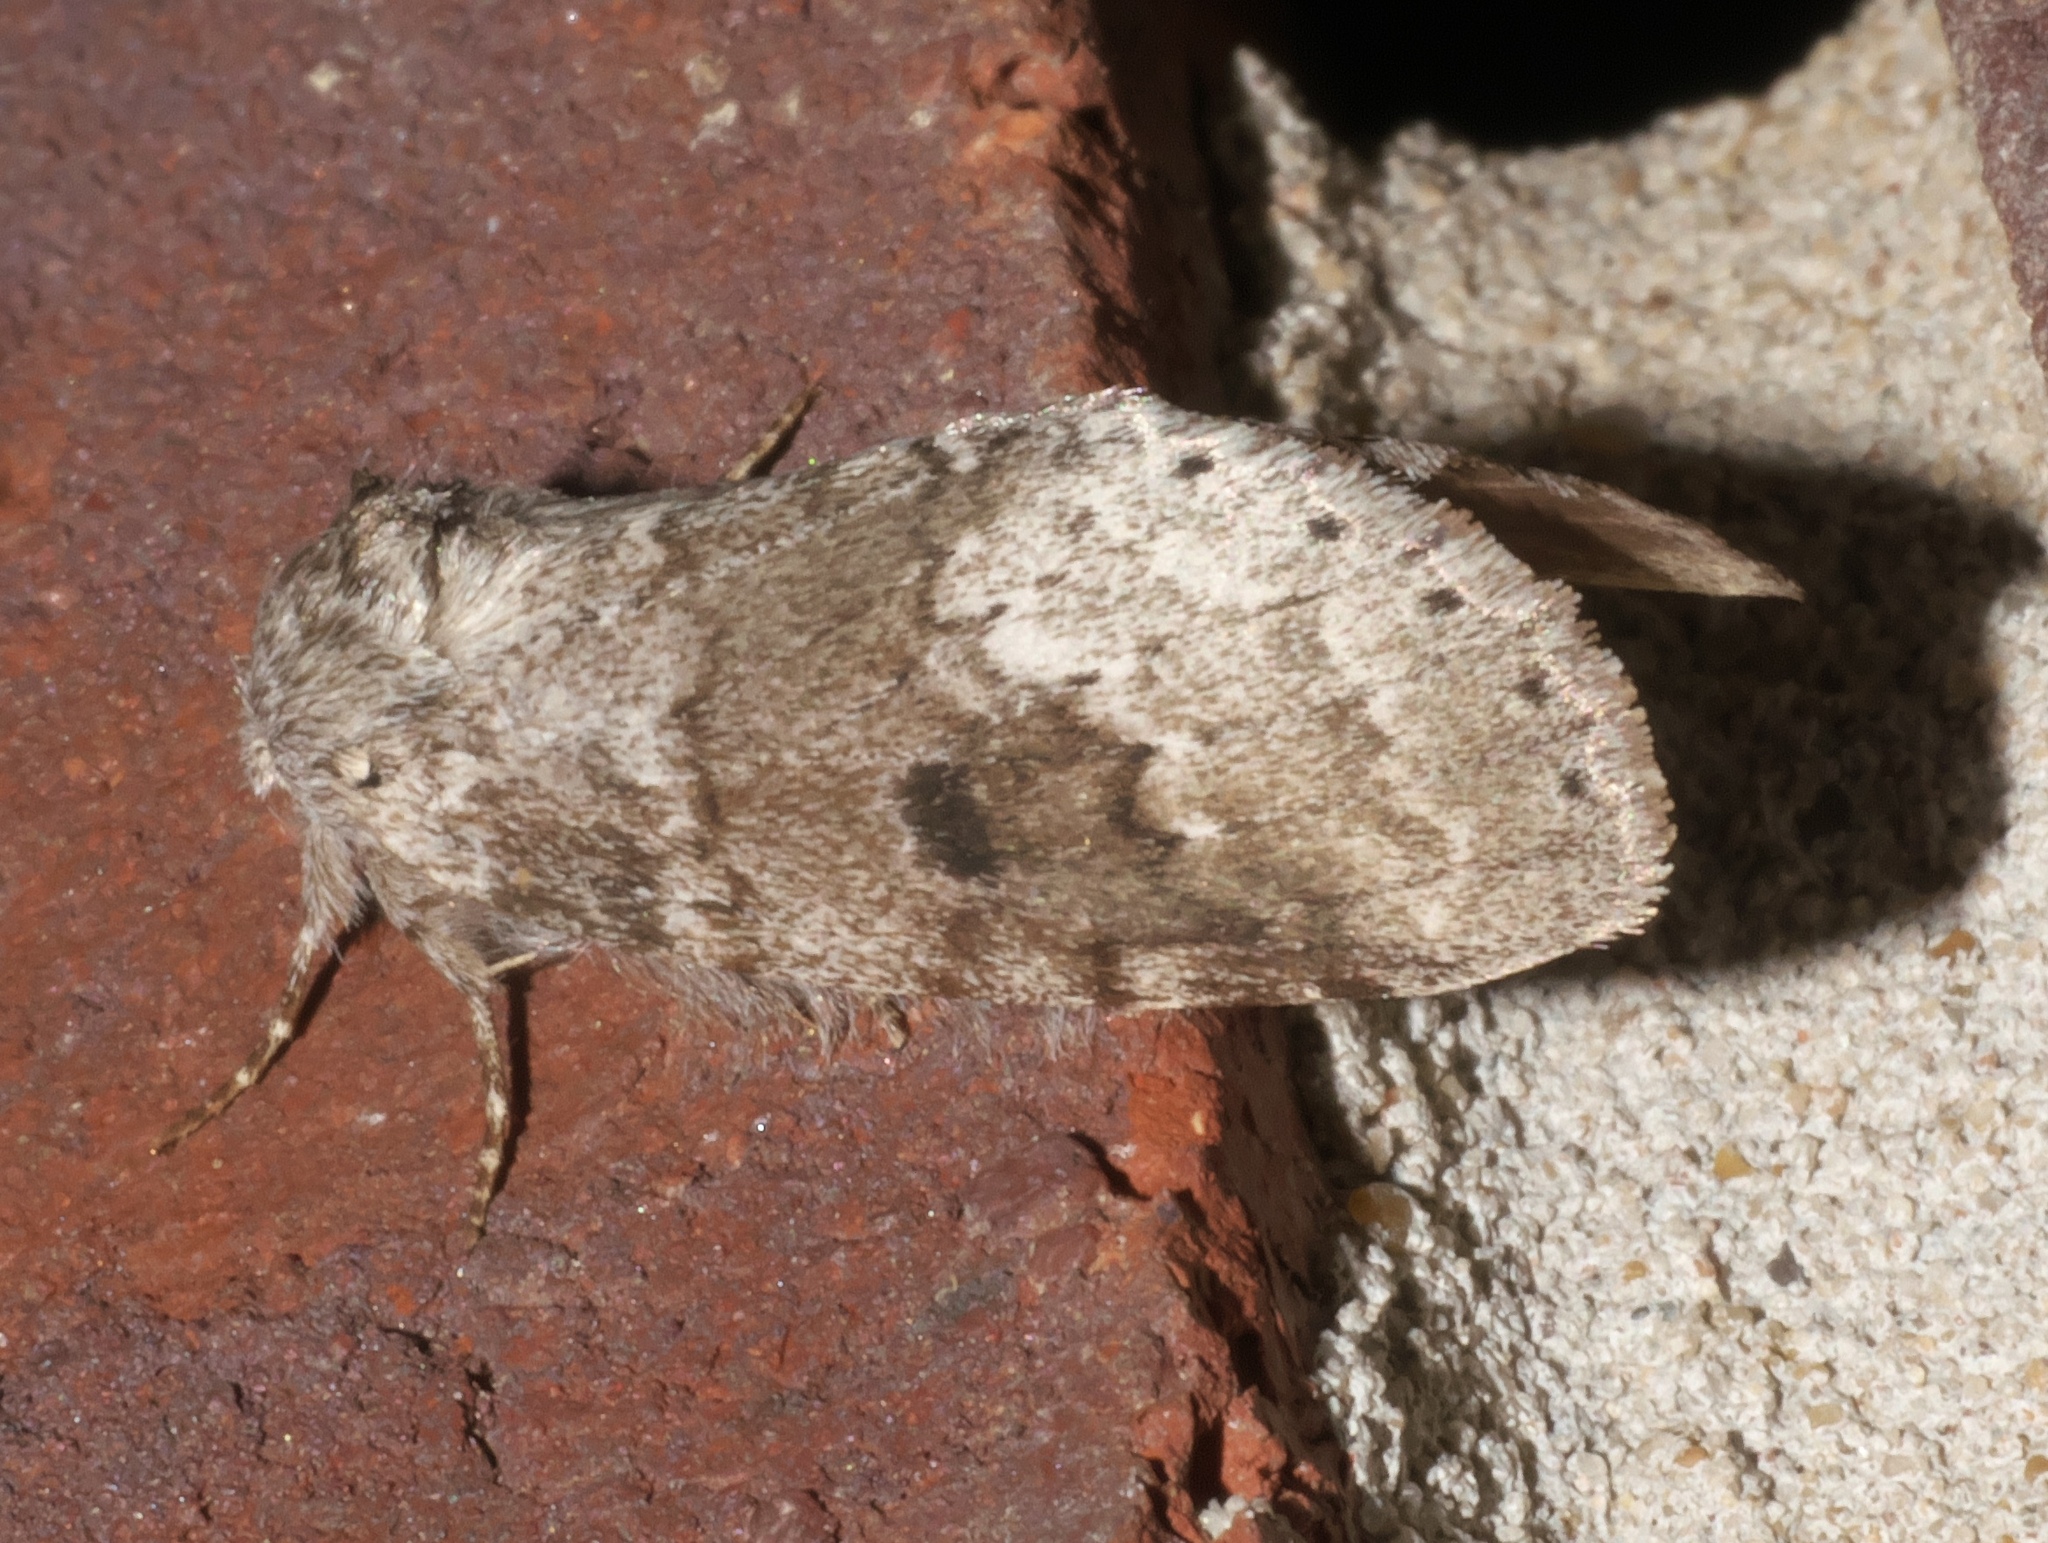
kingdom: Animalia
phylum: Arthropoda
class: Insecta
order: Lepidoptera
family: Notodontidae
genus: Lochmaeus
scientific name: Lochmaeus manteo
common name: Variable oakleaf caterpillar moth
